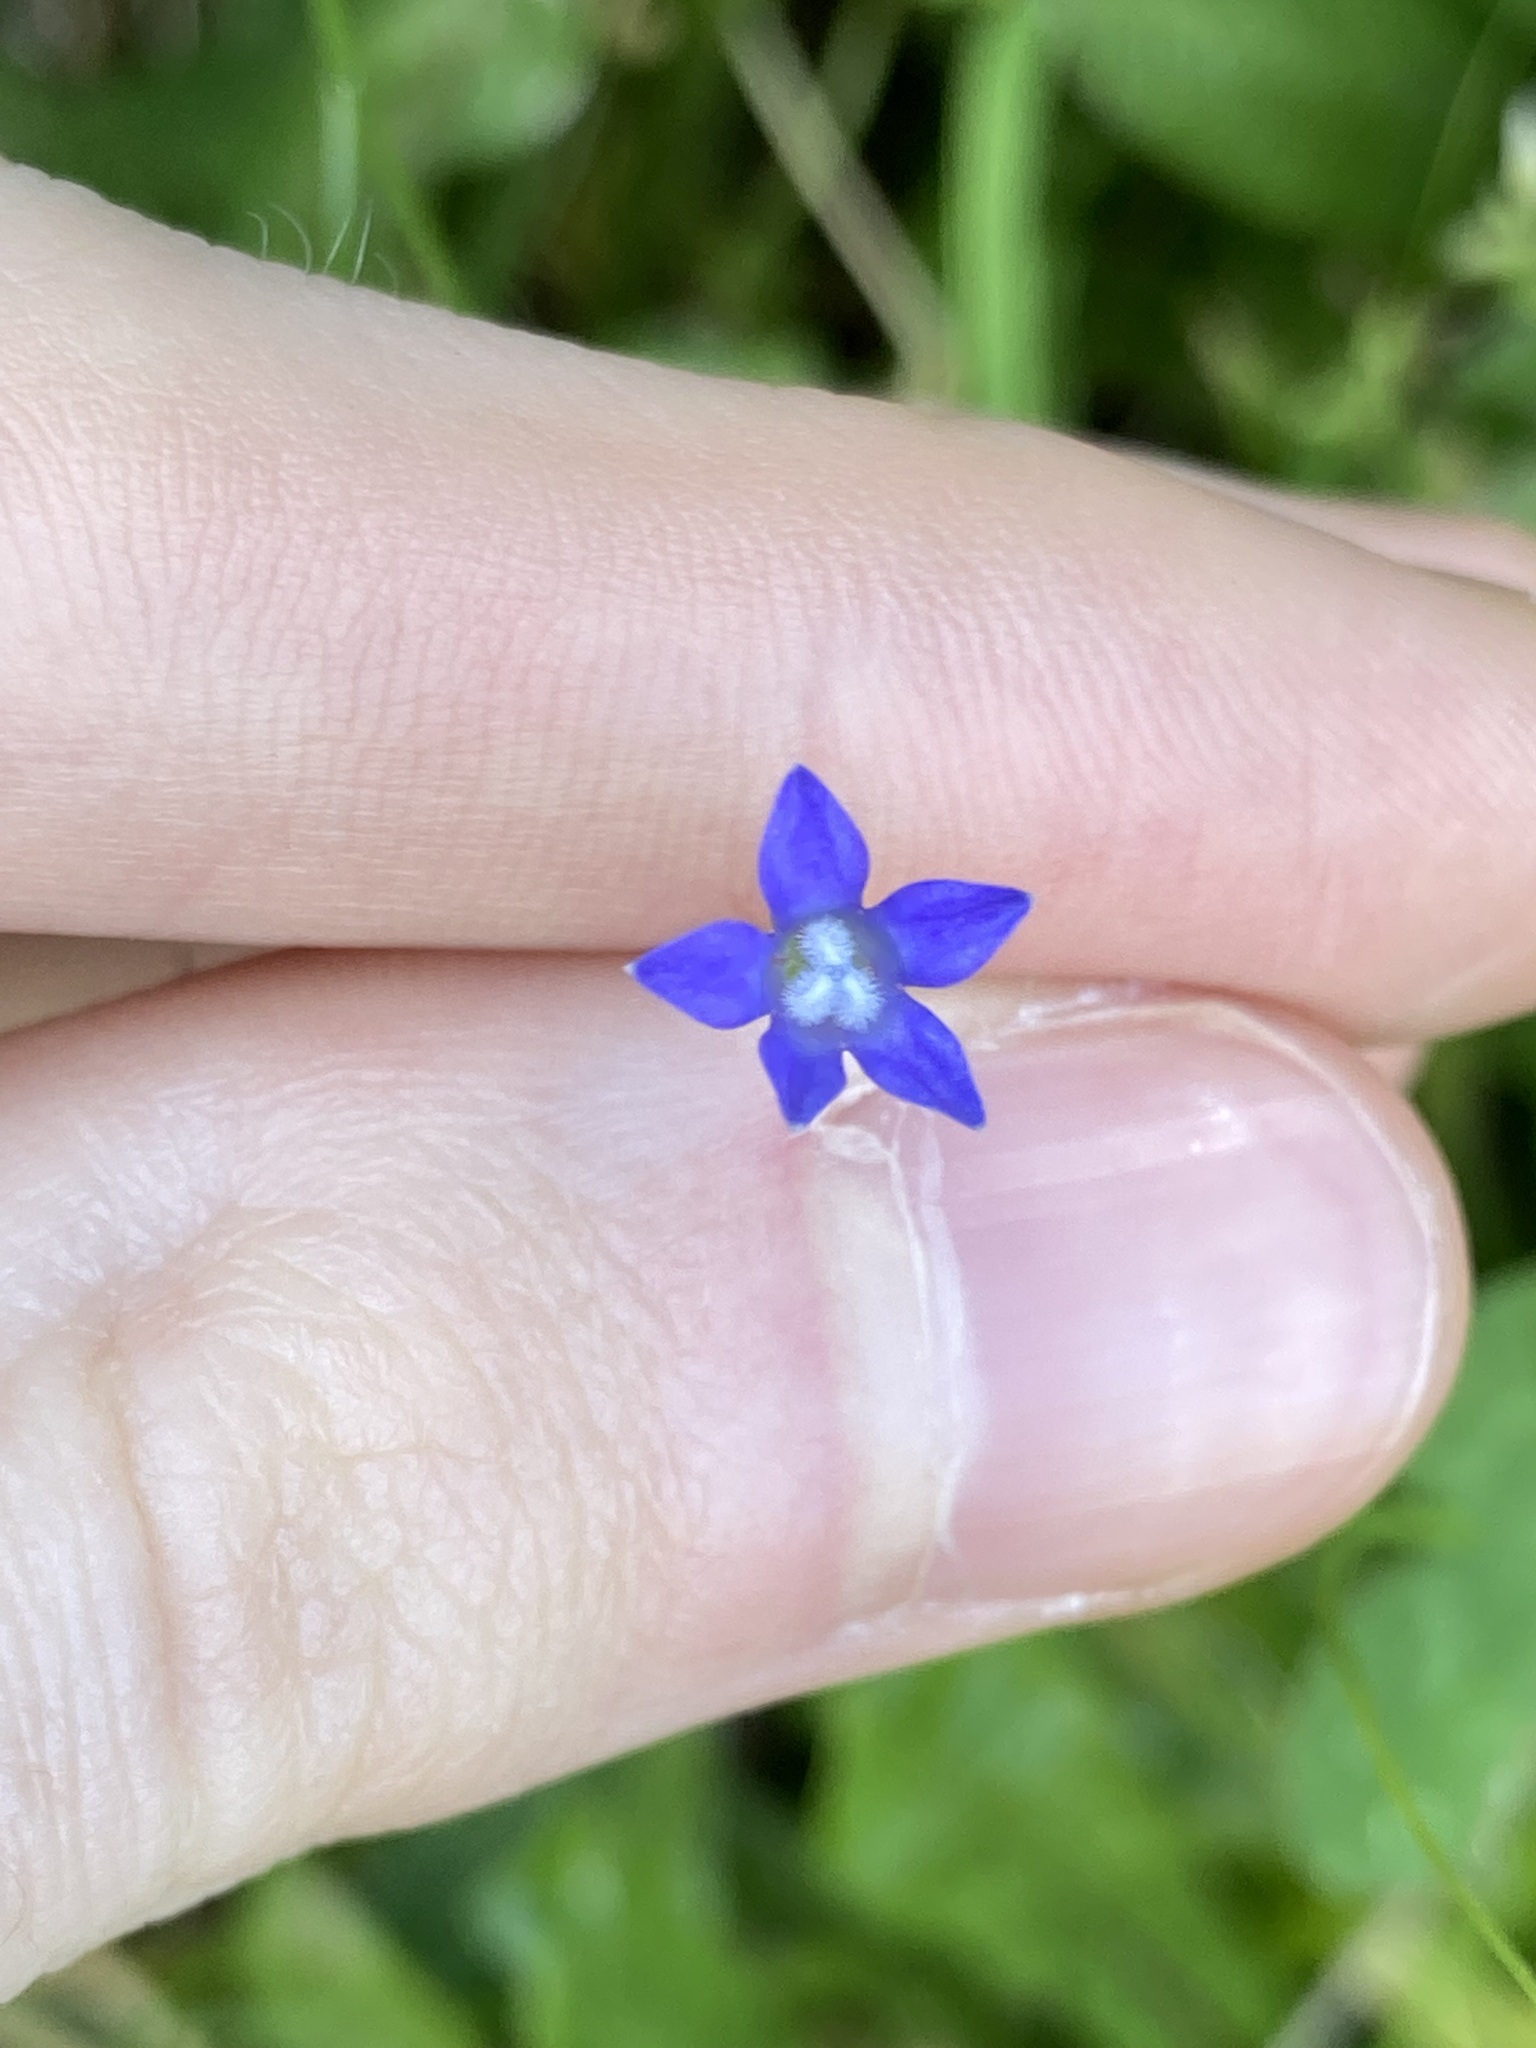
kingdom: Plantae
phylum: Tracheophyta
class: Magnoliopsida
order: Asterales
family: Campanulaceae
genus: Wahlenbergia
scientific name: Wahlenbergia gracilis
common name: Harebell
